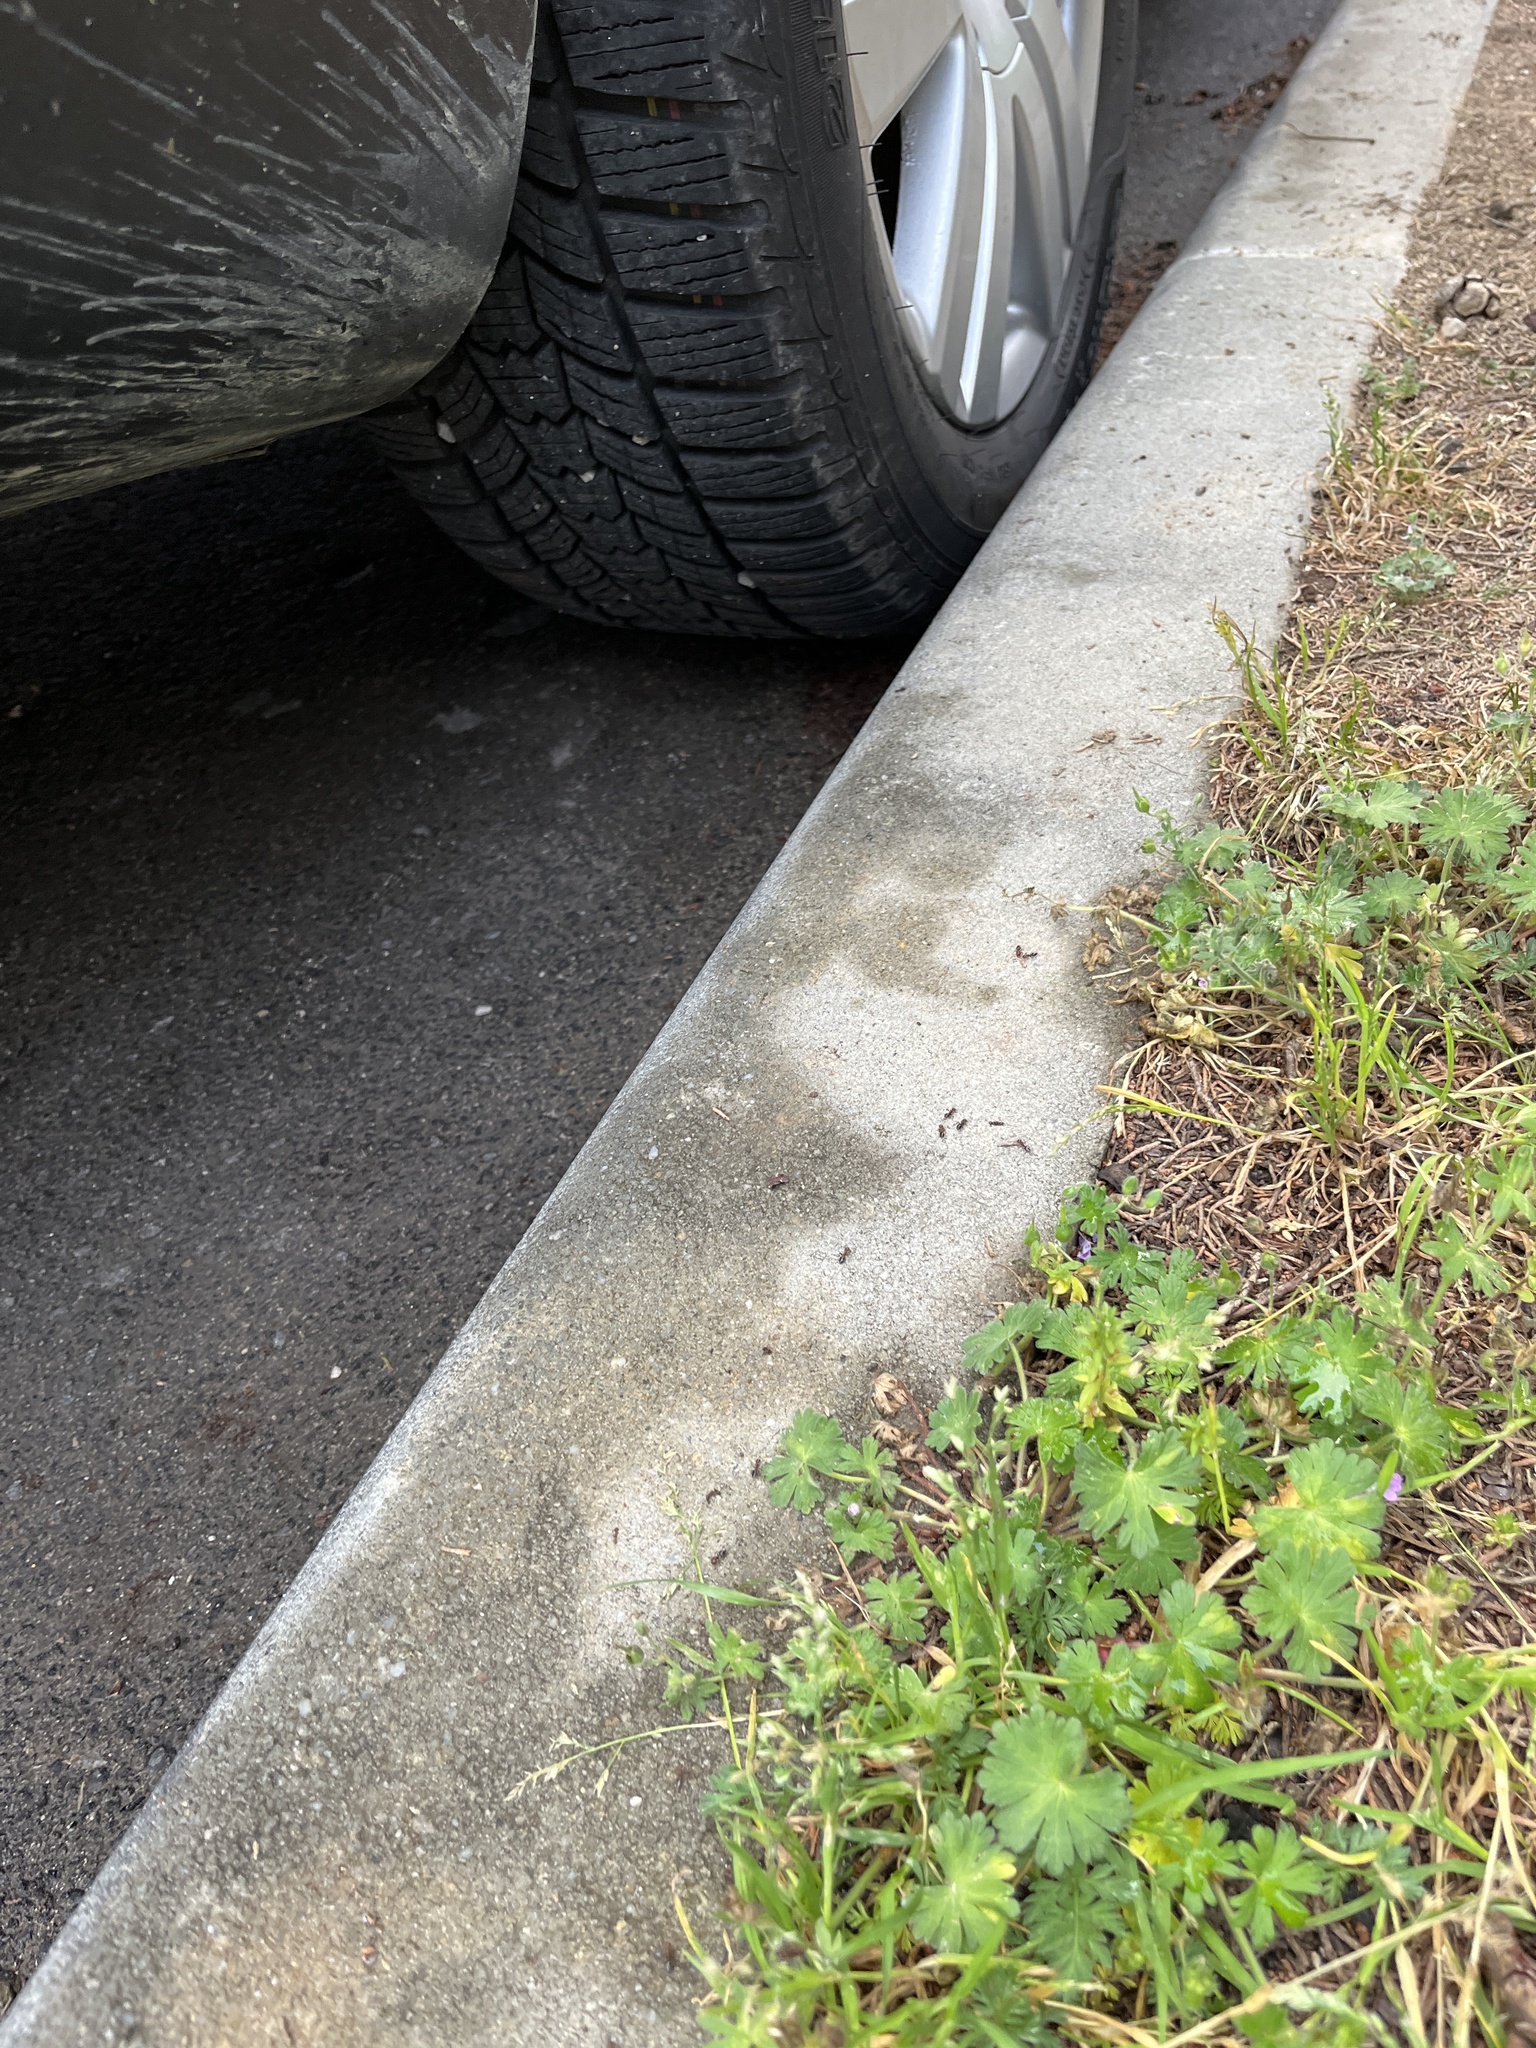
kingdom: Animalia
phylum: Arthropoda
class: Insecta
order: Hymenoptera
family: Formicidae
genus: Crematogaster
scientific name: Crematogaster schmidti
